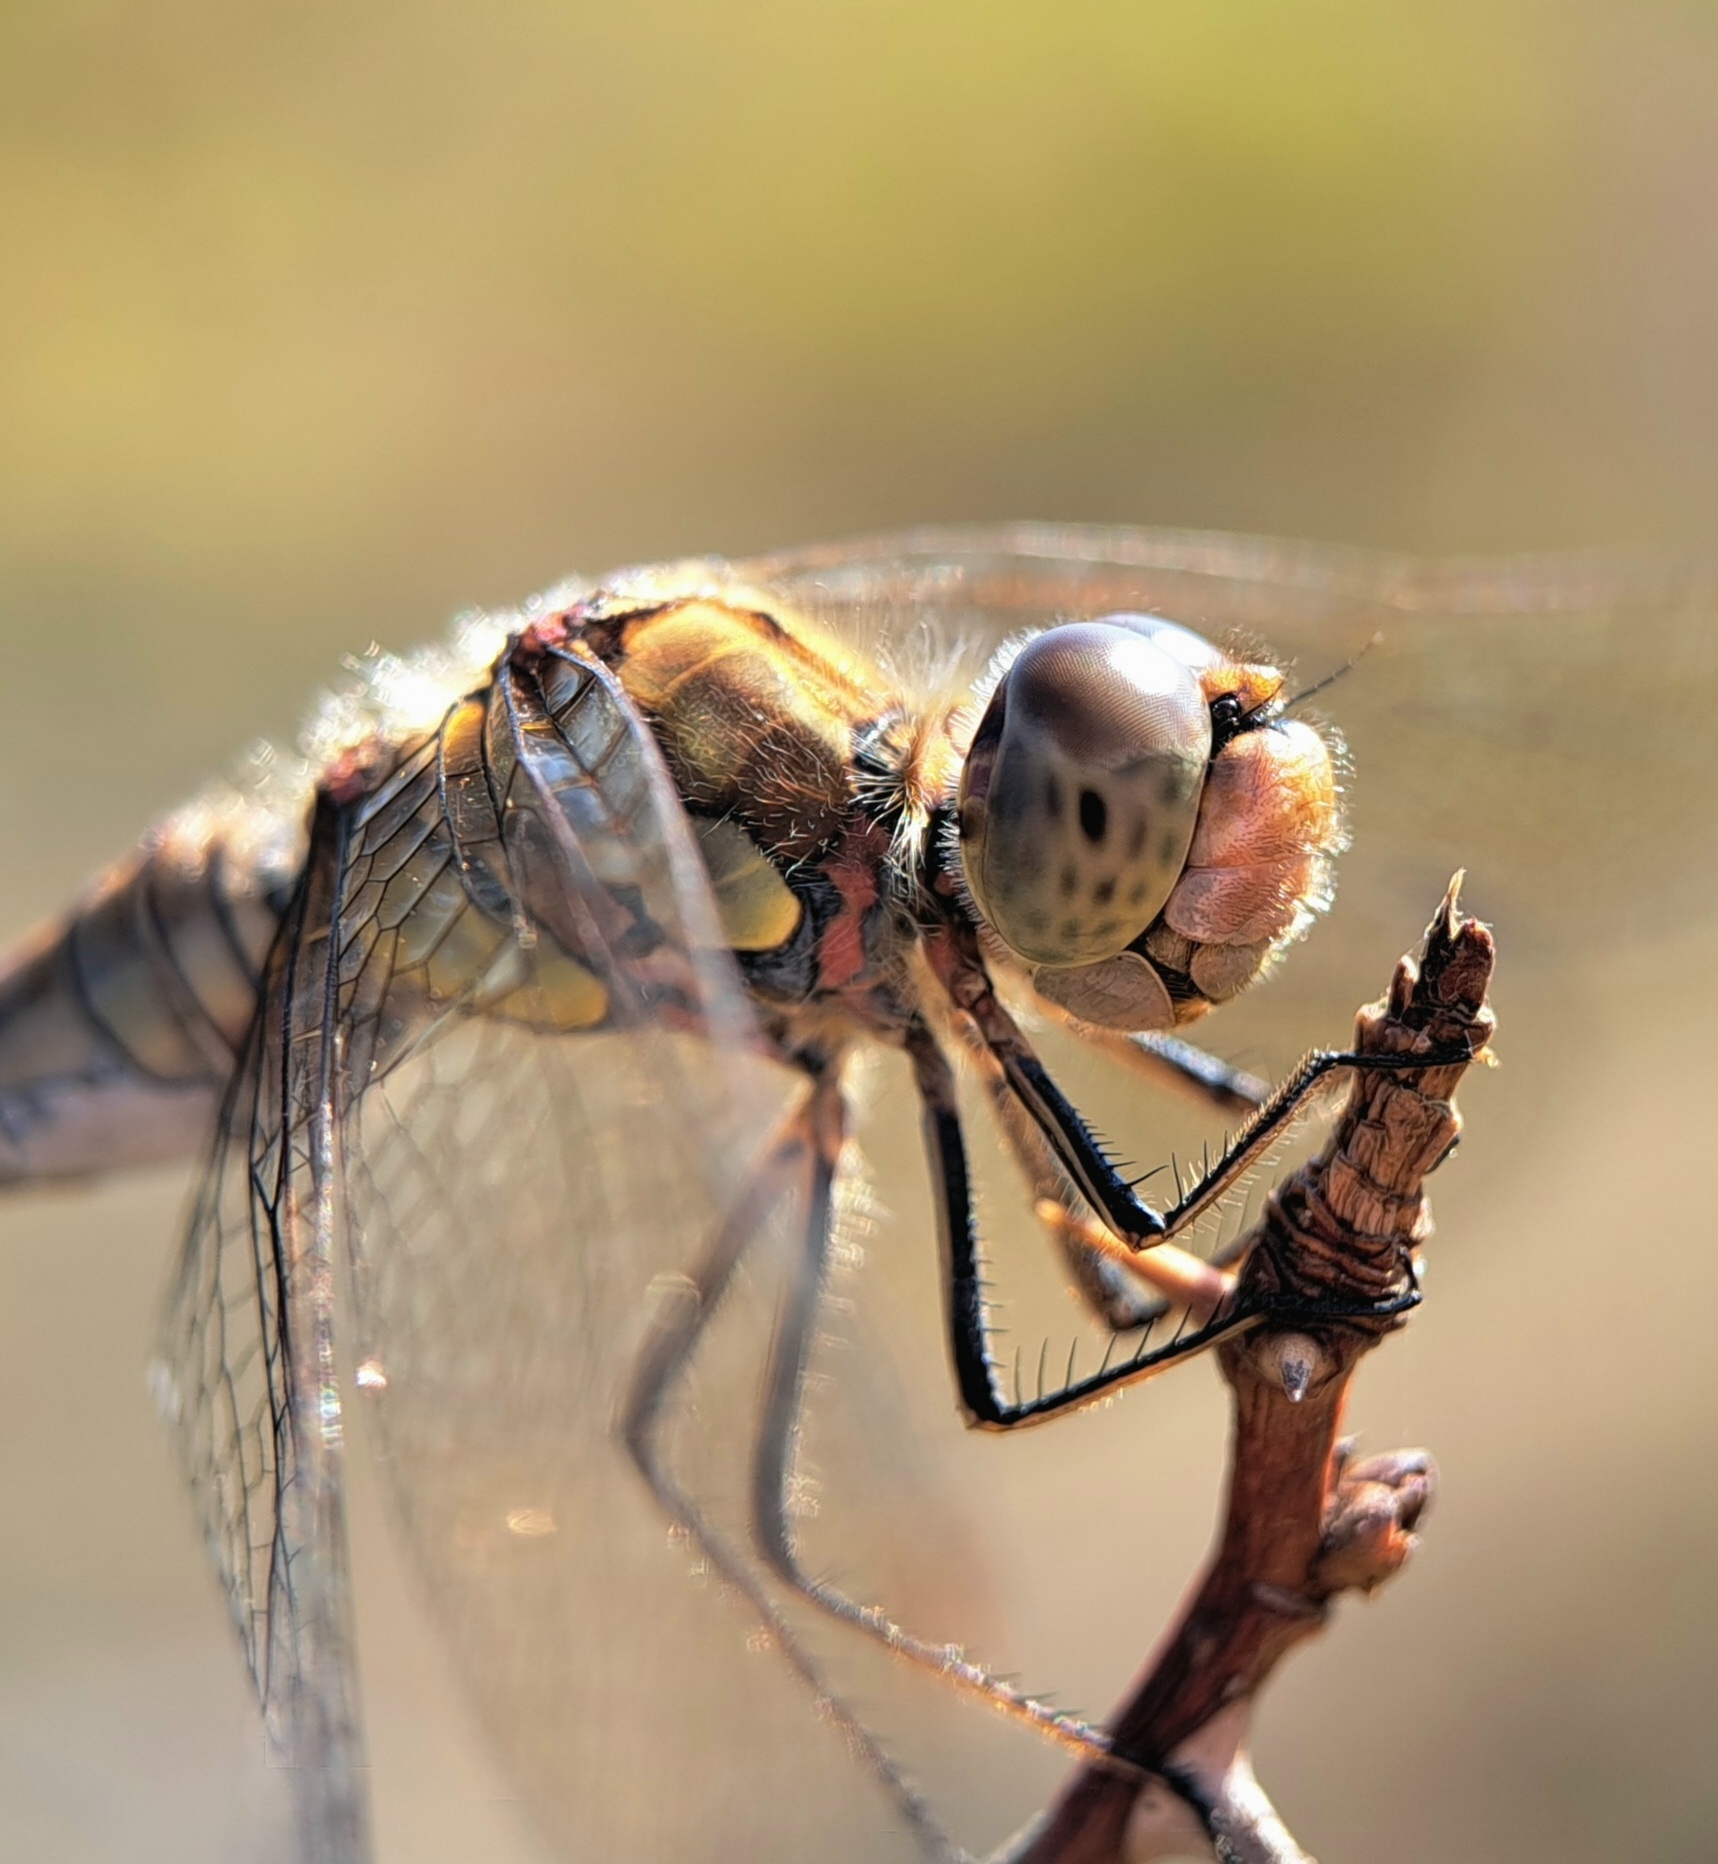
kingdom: Animalia
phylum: Arthropoda
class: Insecta
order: Odonata
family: Libellulidae
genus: Sympetrum
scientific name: Sympetrum striolatum
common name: Common darter
